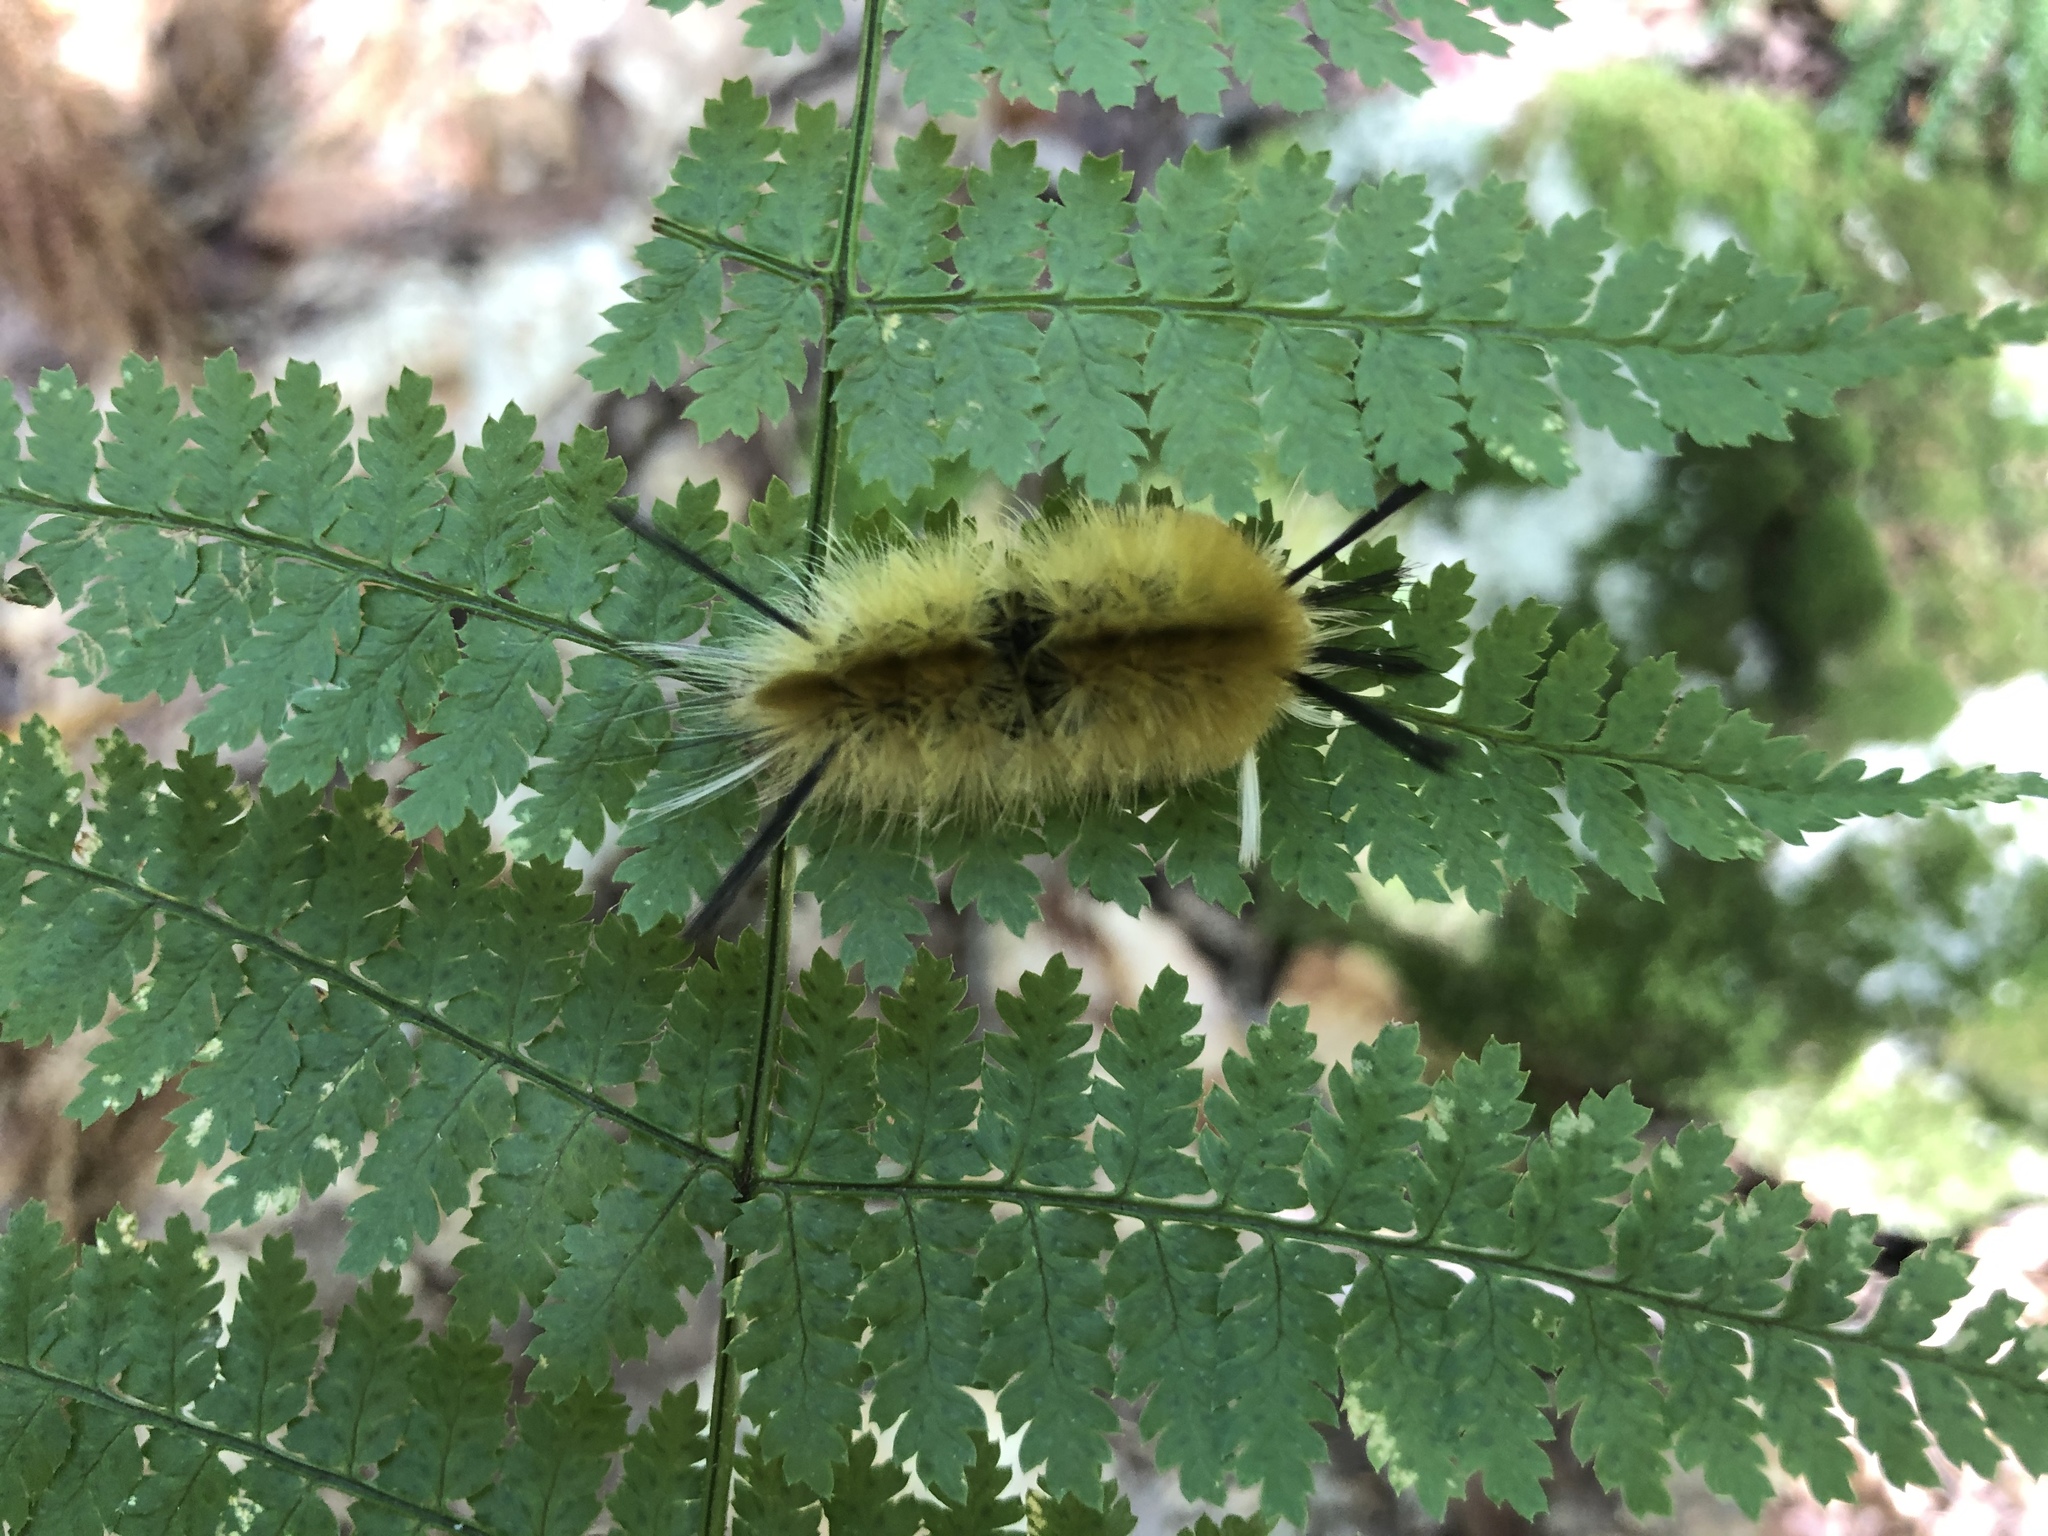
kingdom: Animalia
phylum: Arthropoda
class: Insecta
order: Lepidoptera
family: Erebidae
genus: Halysidota
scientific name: Halysidota tessellaris
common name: Banded tussock moth
